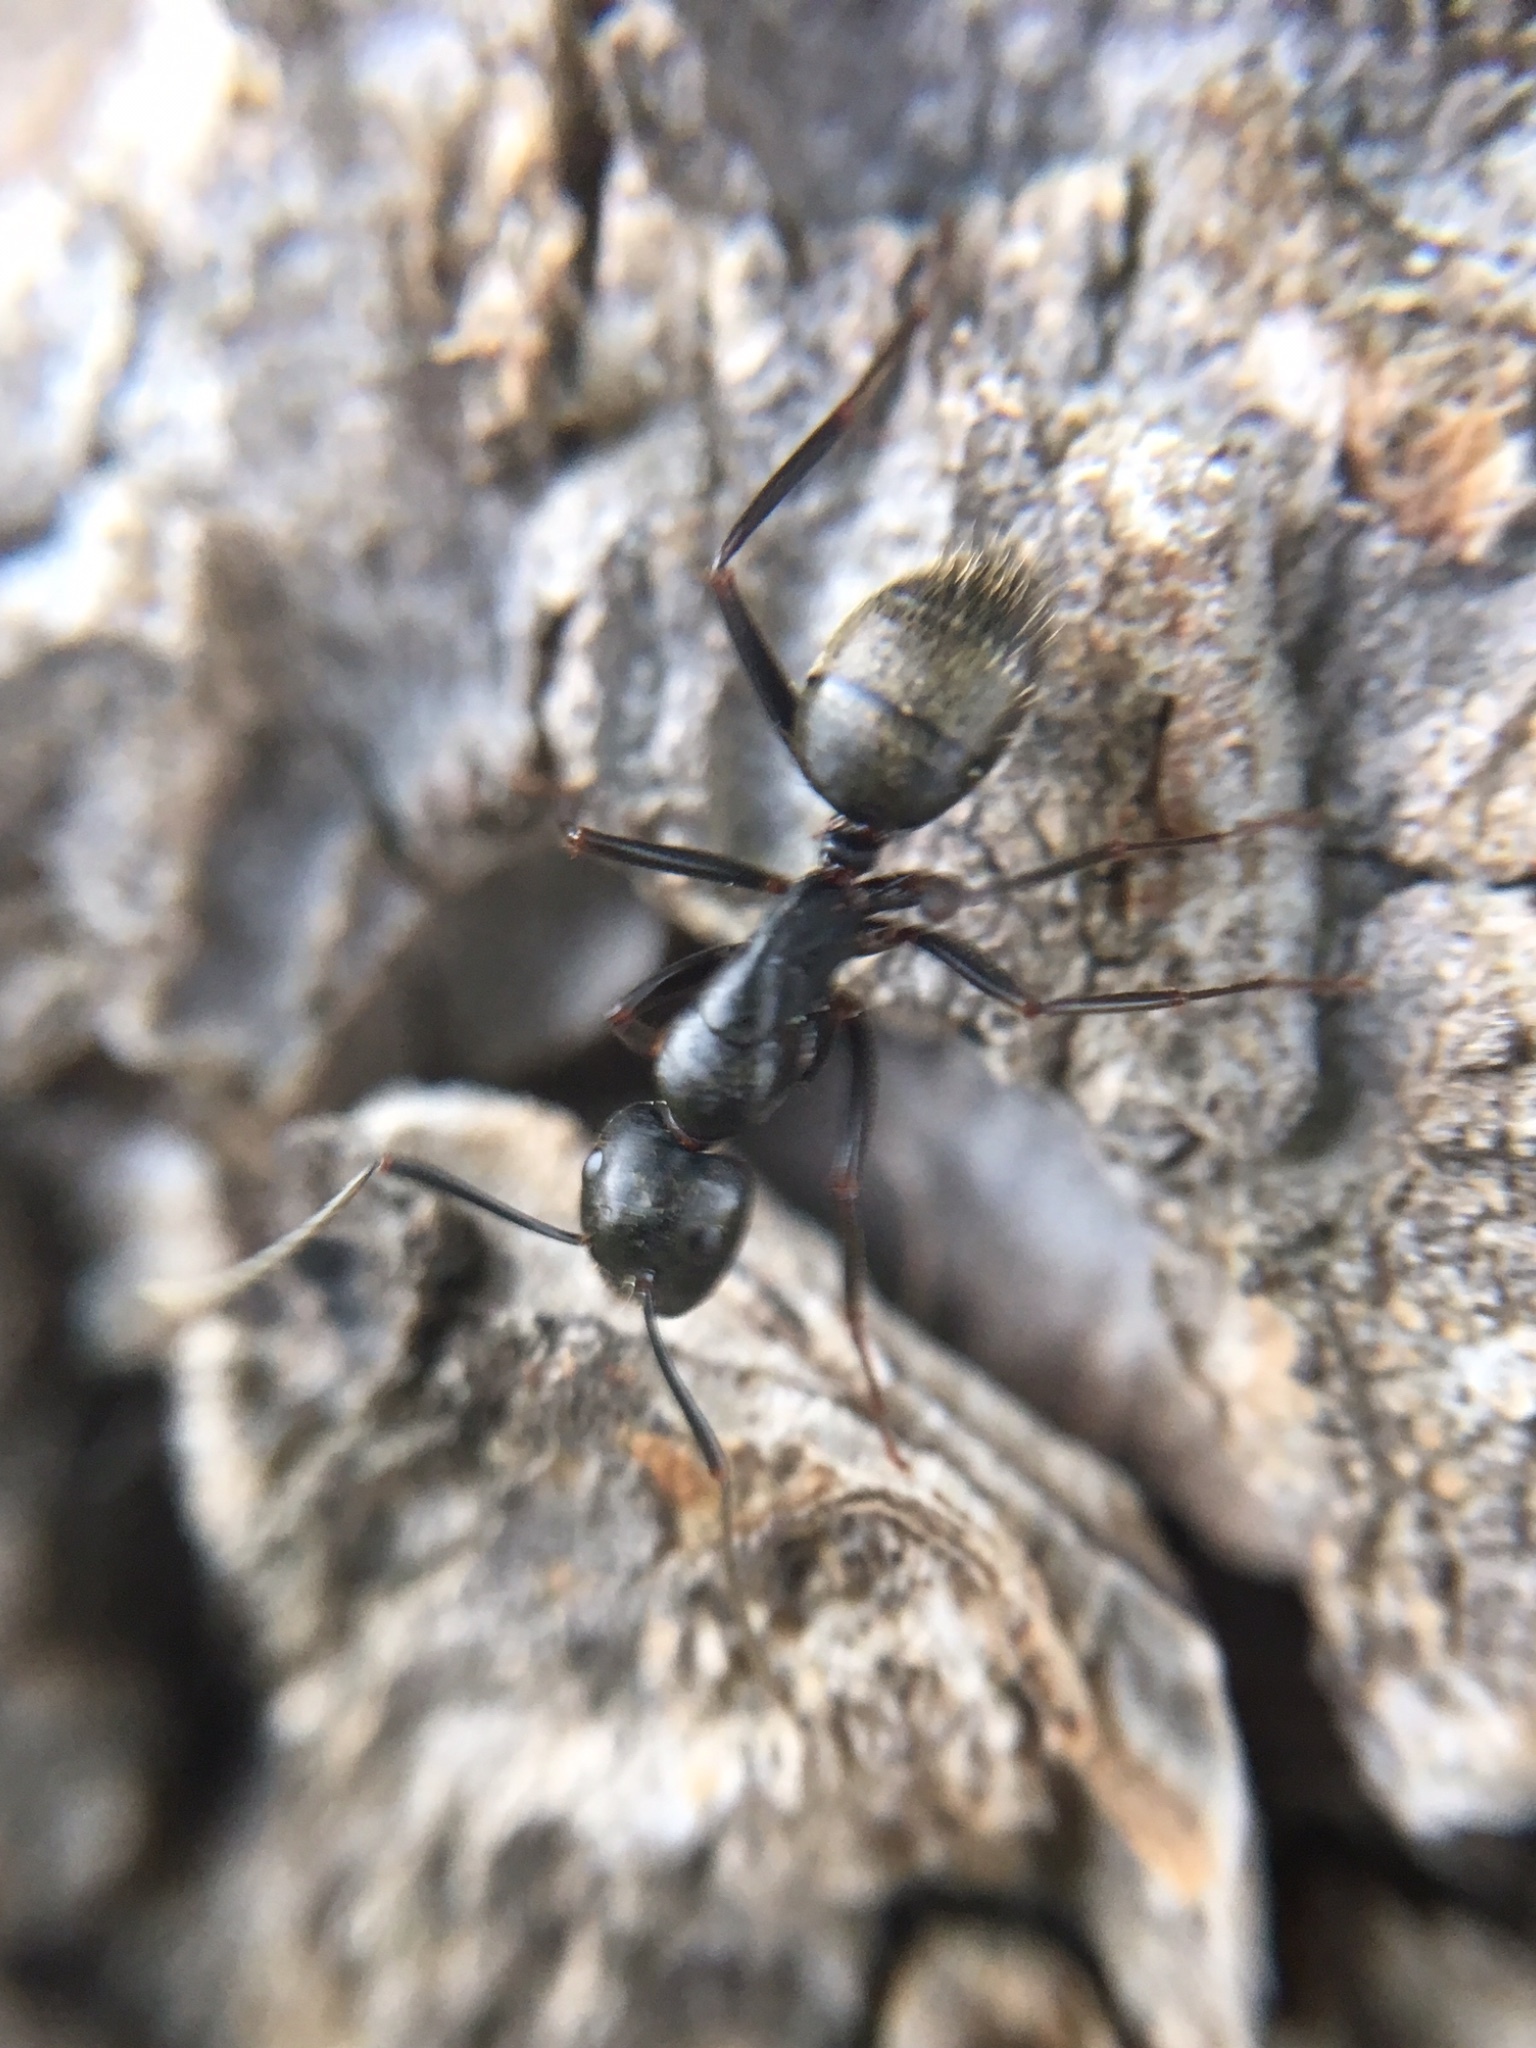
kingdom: Animalia
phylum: Arthropoda
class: Insecta
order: Hymenoptera
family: Formicidae
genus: Camponotus
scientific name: Camponotus pennsylvanicus
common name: Black carpenter ant
